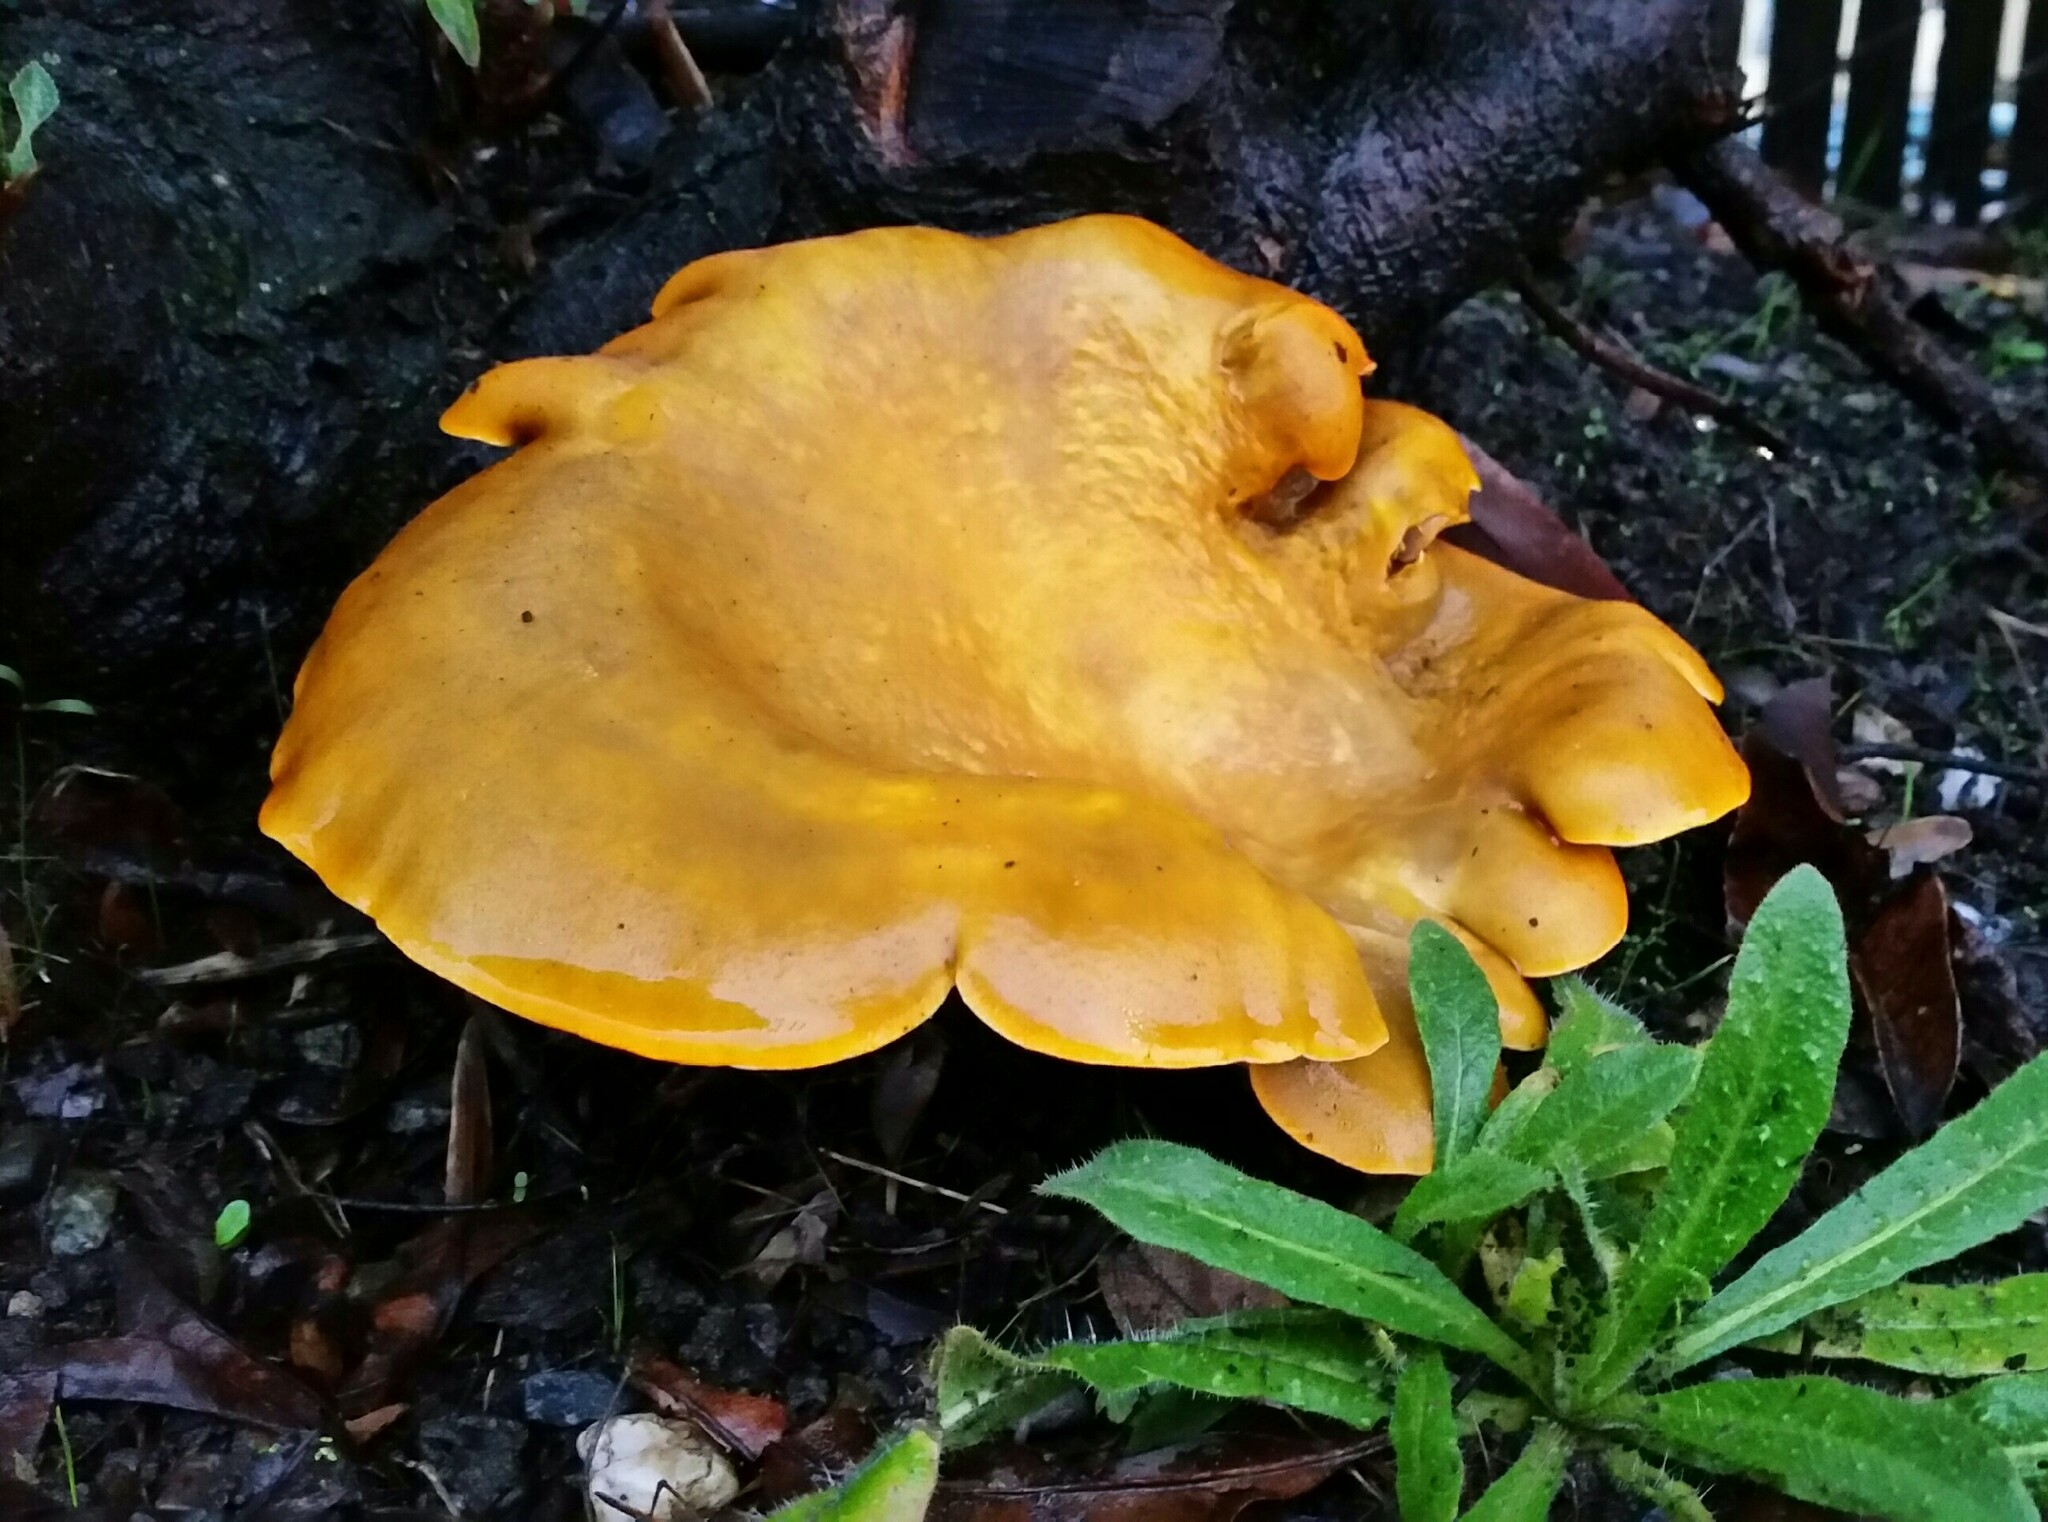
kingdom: Fungi
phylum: Basidiomycota
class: Agaricomycetes
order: Agaricales
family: Omphalotaceae
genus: Omphalotus
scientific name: Omphalotus olivascens
